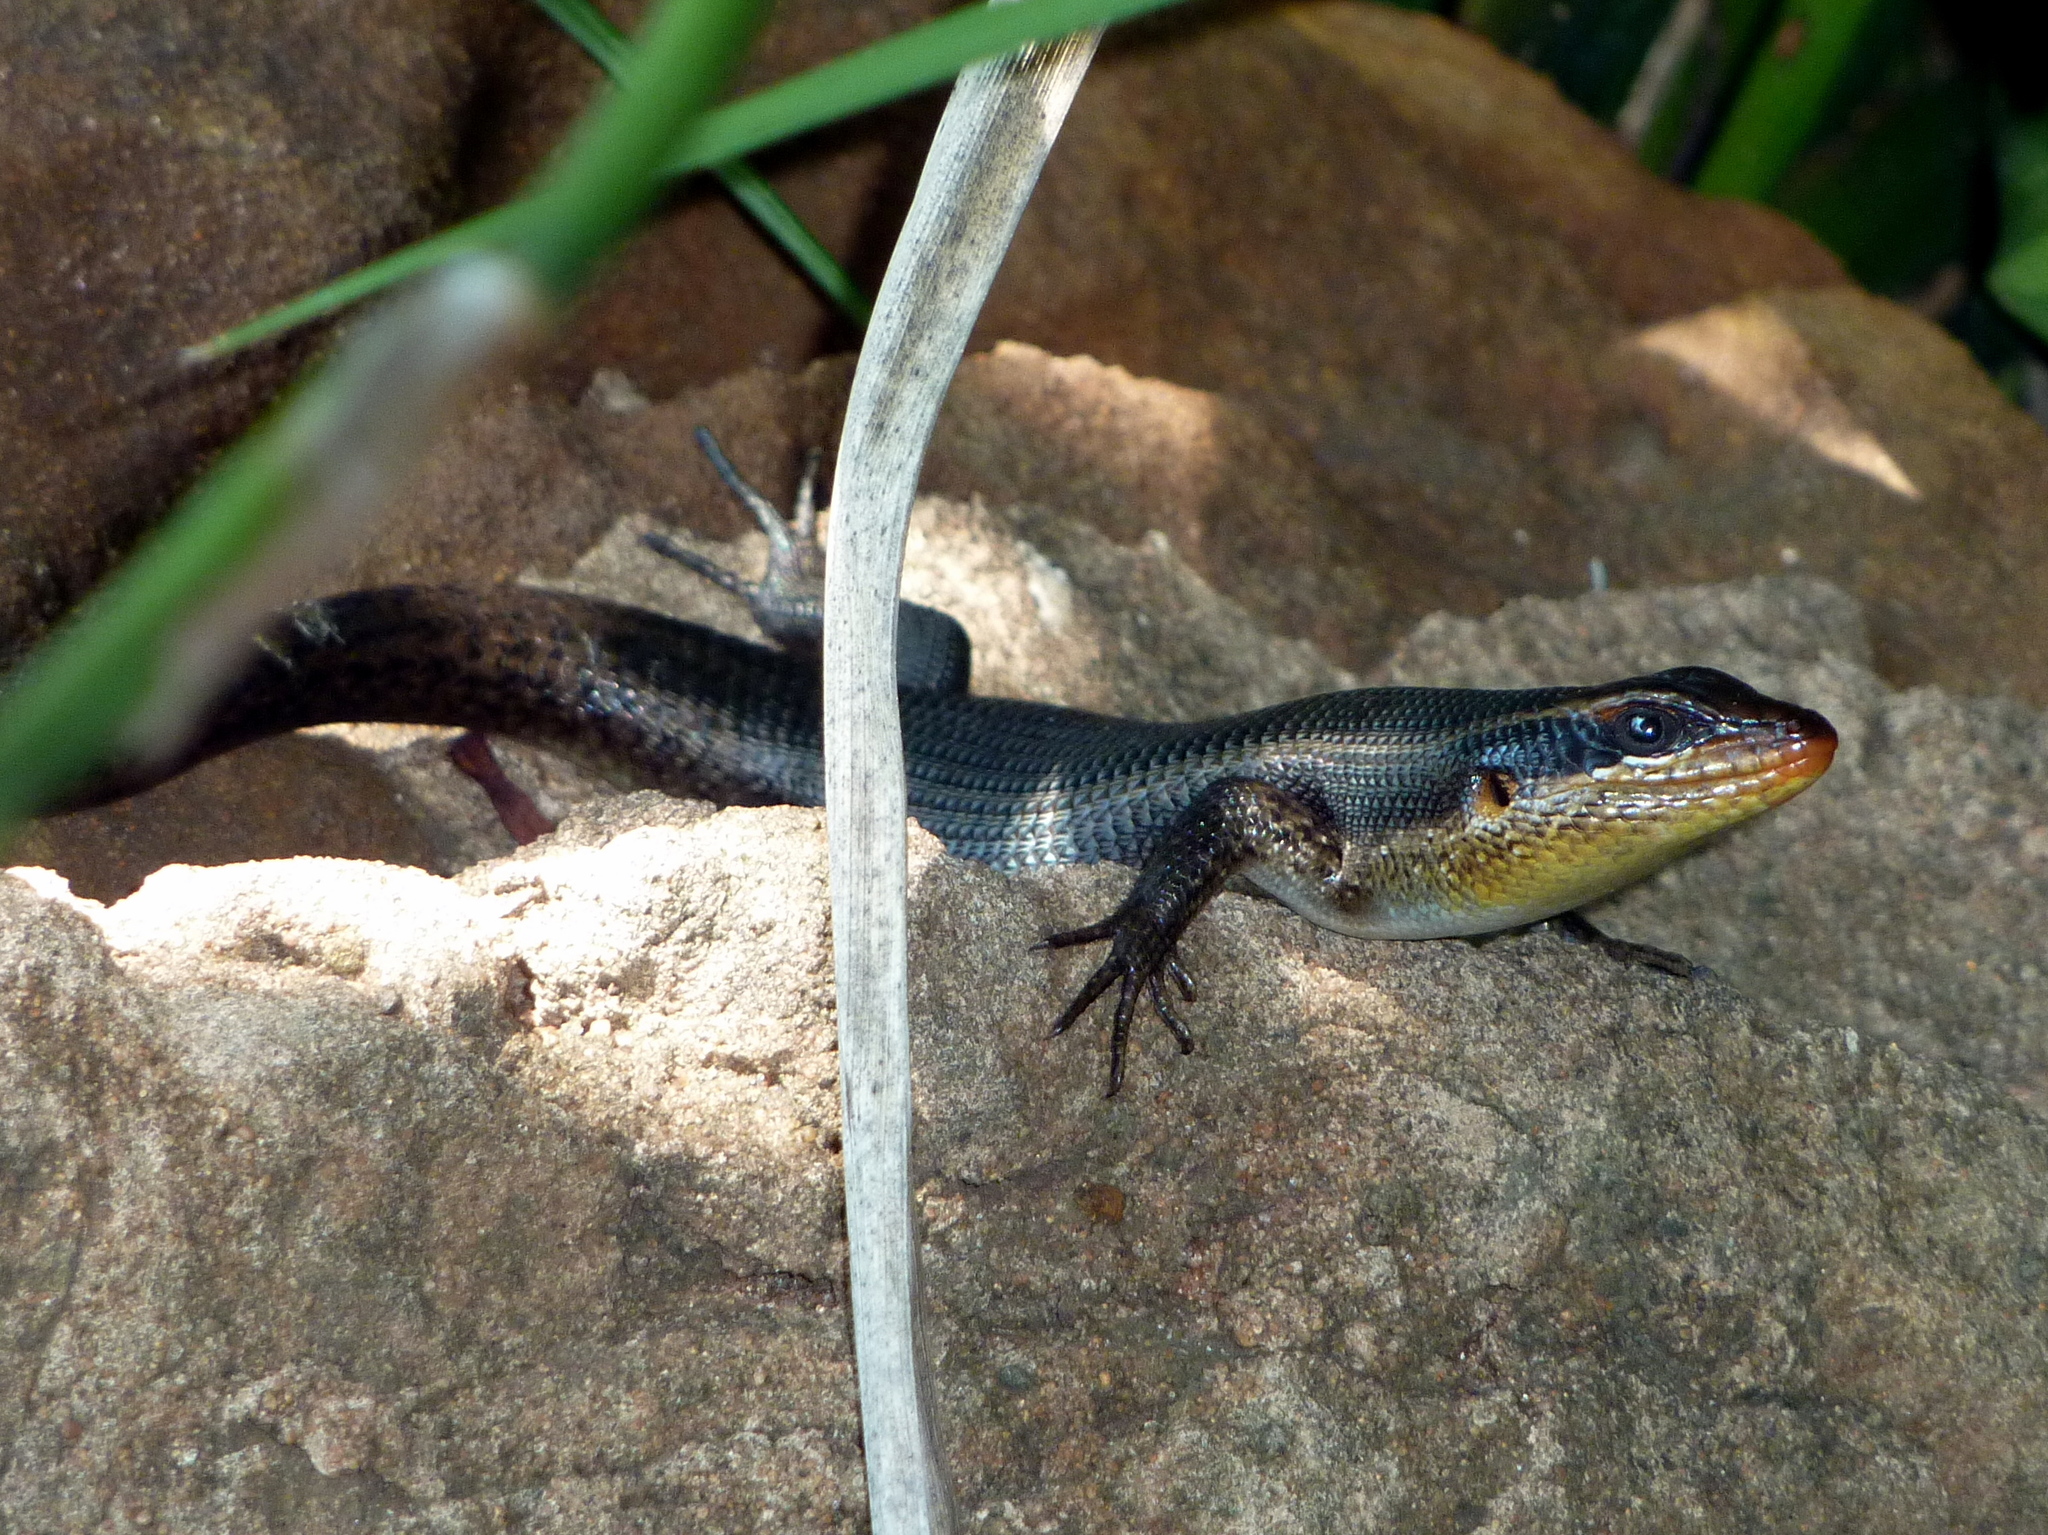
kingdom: Animalia
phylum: Chordata
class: Squamata
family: Scincidae
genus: Trachylepis
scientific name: Trachylepis wahlbergii
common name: Wahlberg’s striped skink
